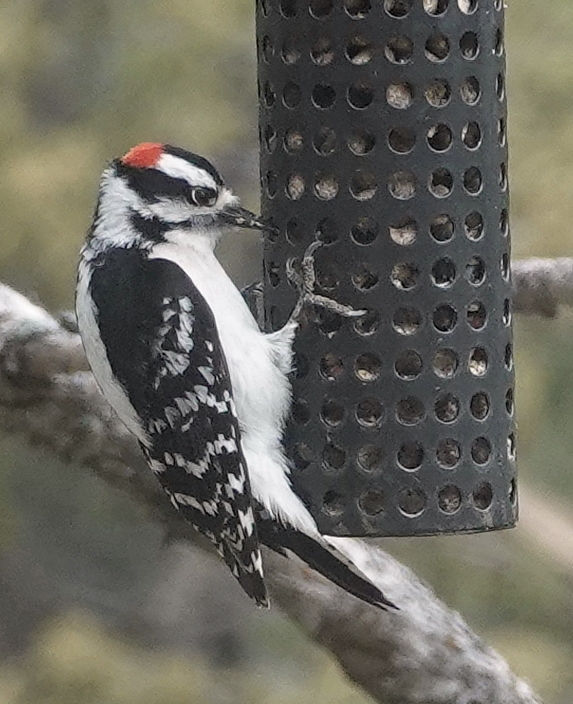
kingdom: Animalia
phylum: Chordata
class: Aves
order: Piciformes
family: Picidae
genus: Dryobates
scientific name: Dryobates pubescens
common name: Downy woodpecker
